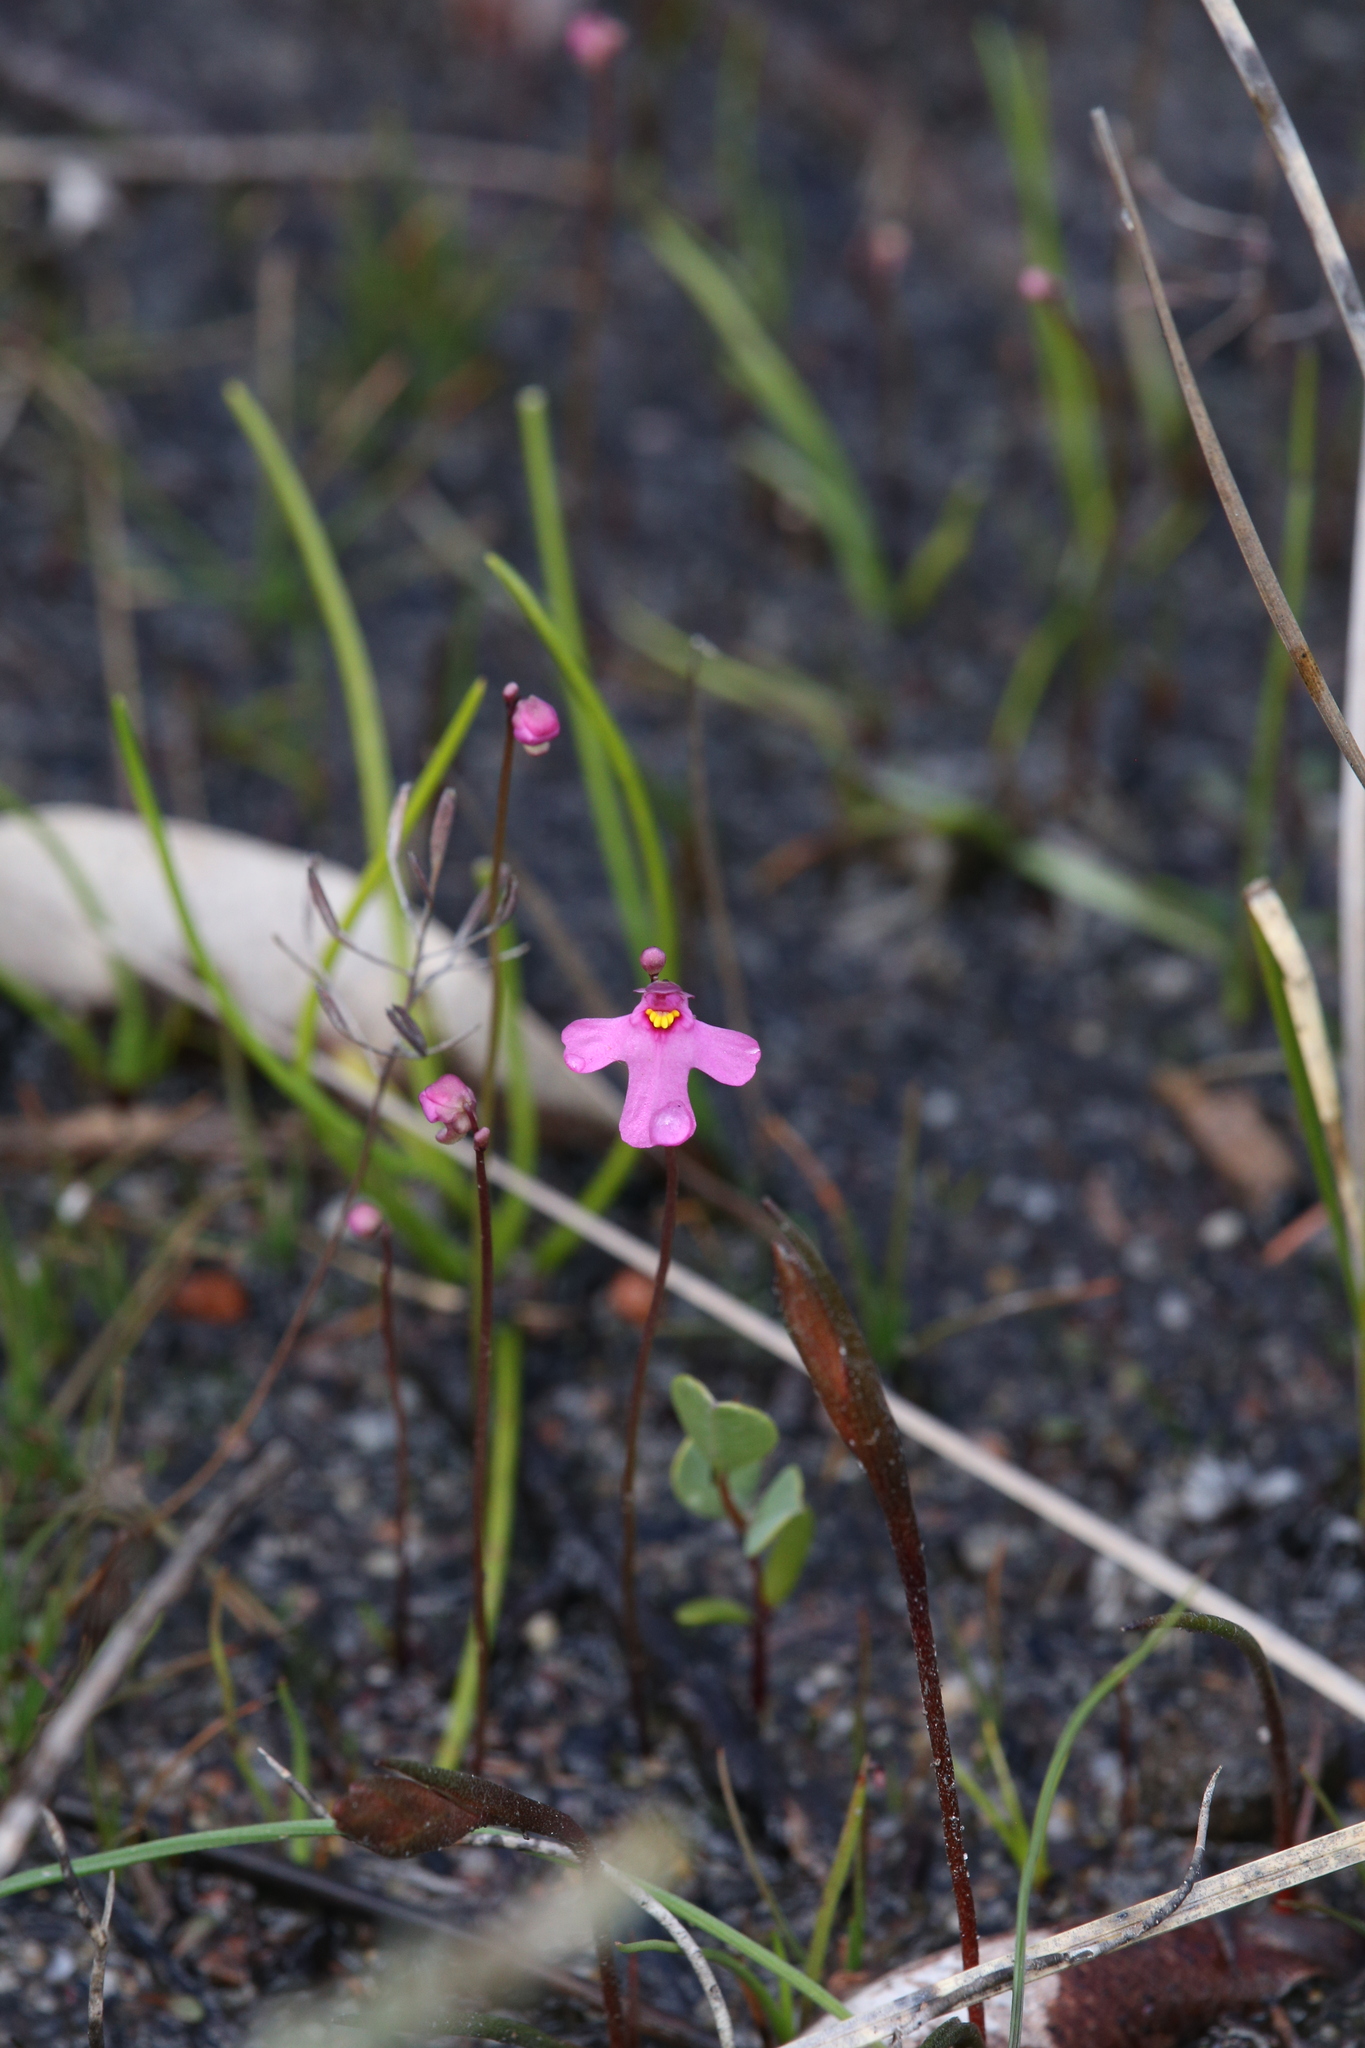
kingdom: Plantae
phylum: Tracheophyta
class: Magnoliopsida
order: Lamiales
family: Lentibulariaceae
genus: Utricularia
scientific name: Utricularia multifida
